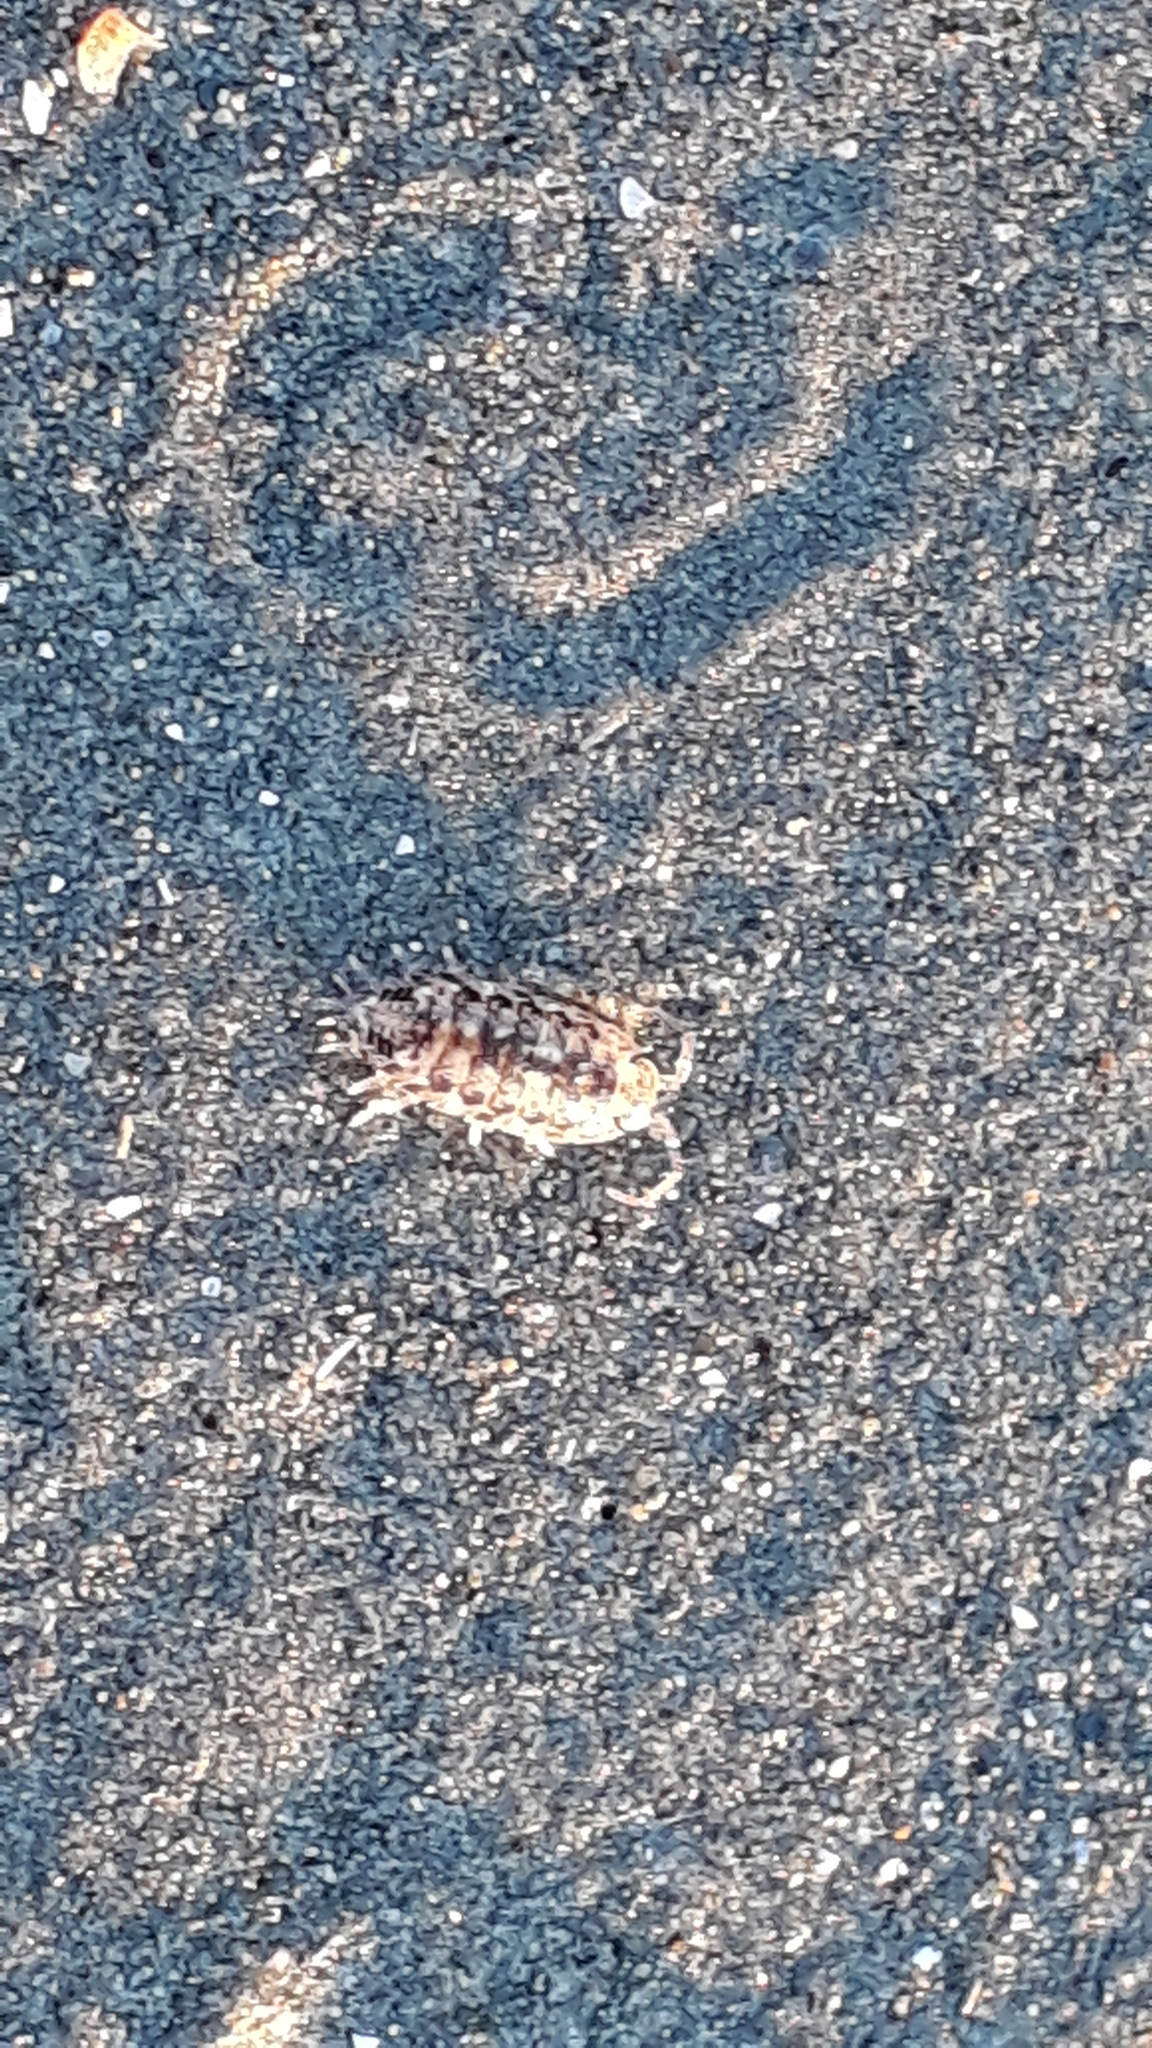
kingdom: Animalia
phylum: Arthropoda
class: Malacostraca
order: Isopoda
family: Scyphacidae
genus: Scyphax
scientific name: Scyphax ornatus
